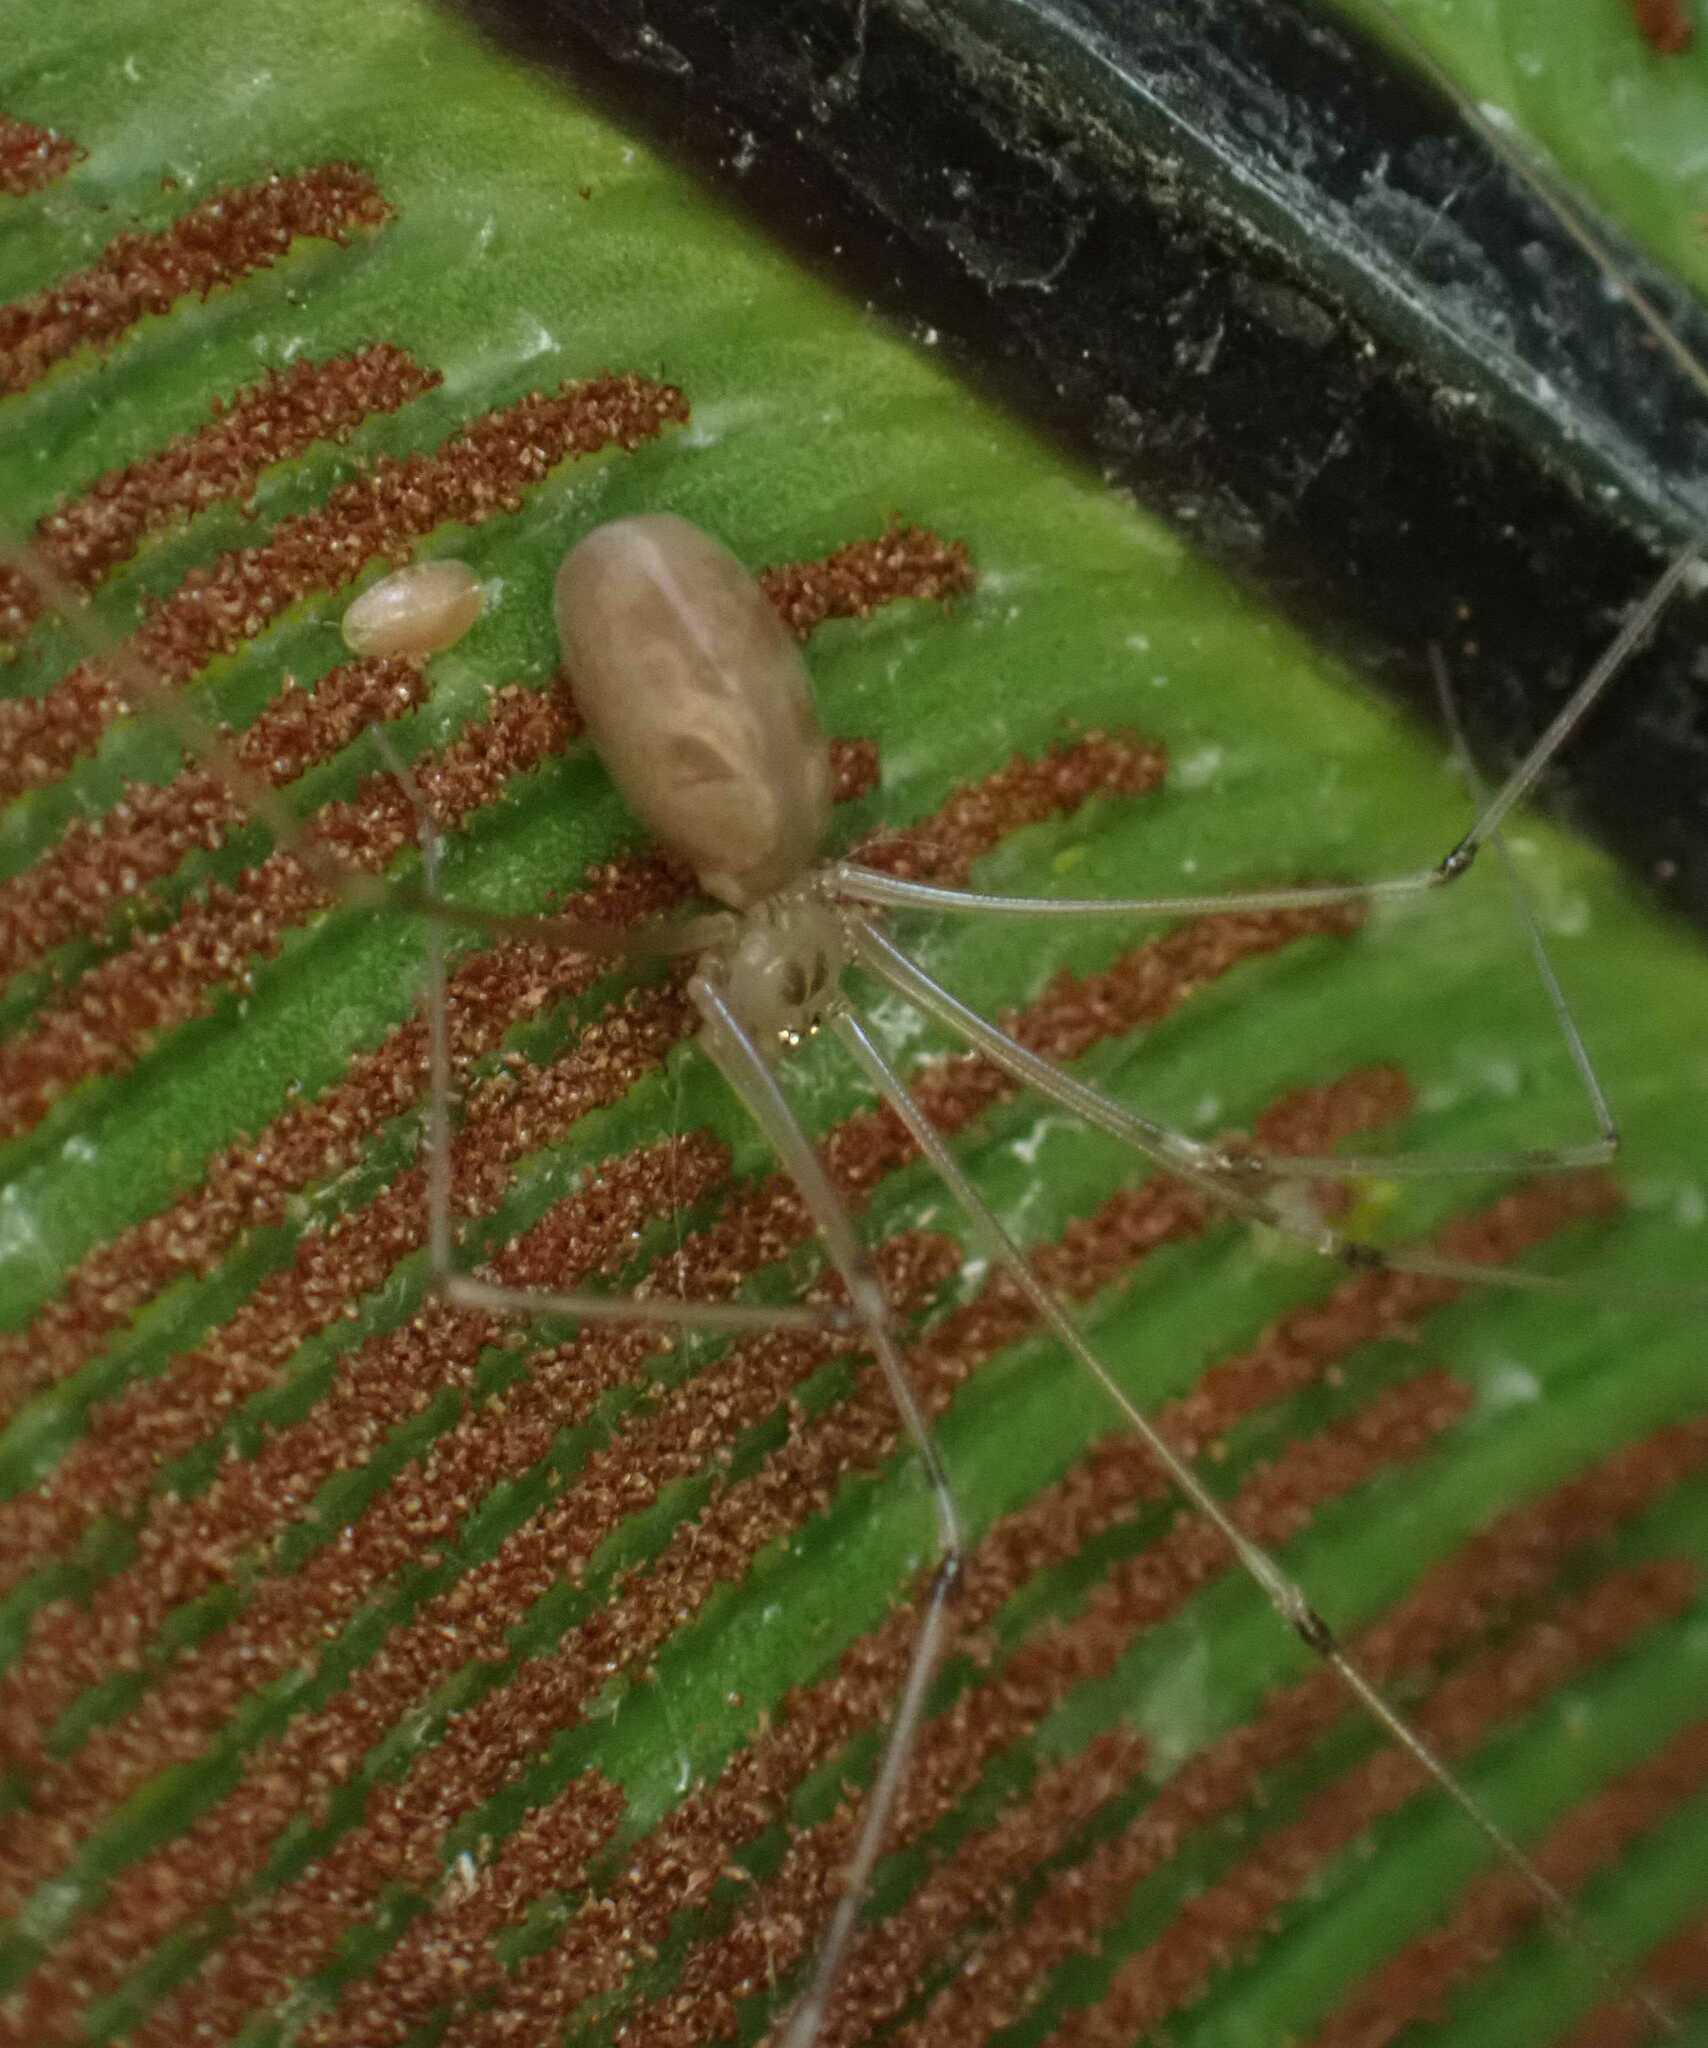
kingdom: Animalia
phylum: Arthropoda
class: Arachnida
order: Araneae
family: Pholcidae
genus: Pholcus
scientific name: Pholcus phalangioides
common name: Longbodied cellar spider
